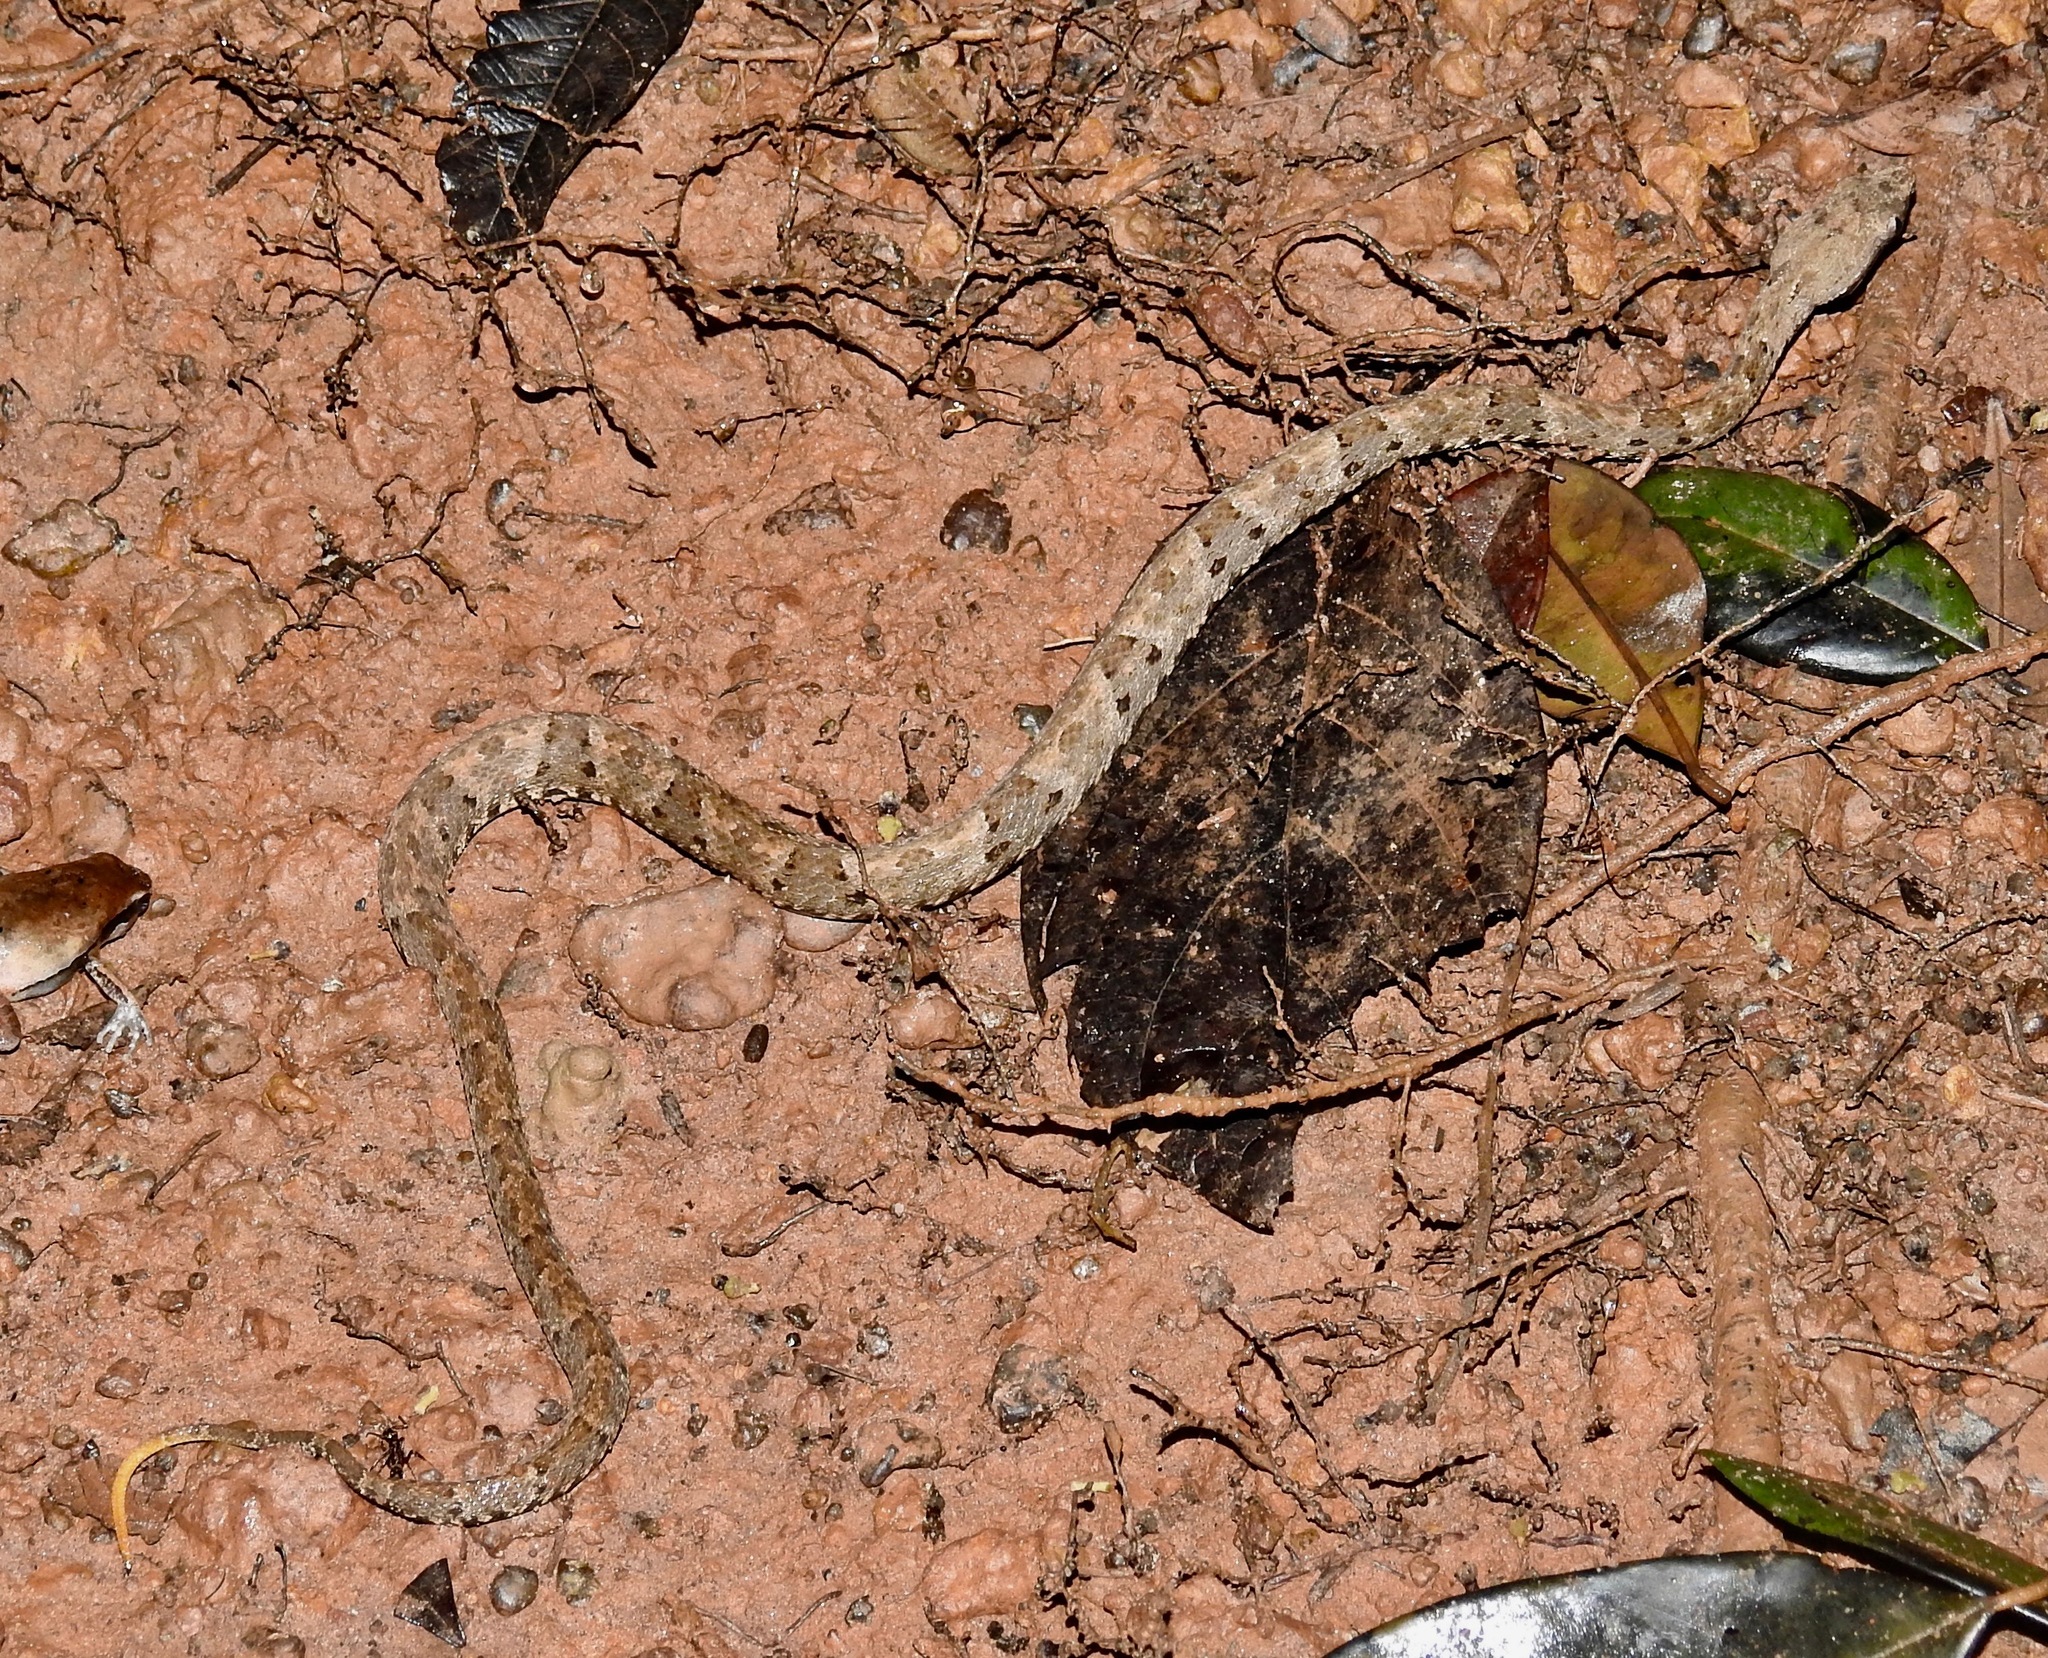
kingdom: Animalia
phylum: Chordata
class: Squamata
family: Viperidae
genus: Bothrops
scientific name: Bothrops atrox
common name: Common lancehead
